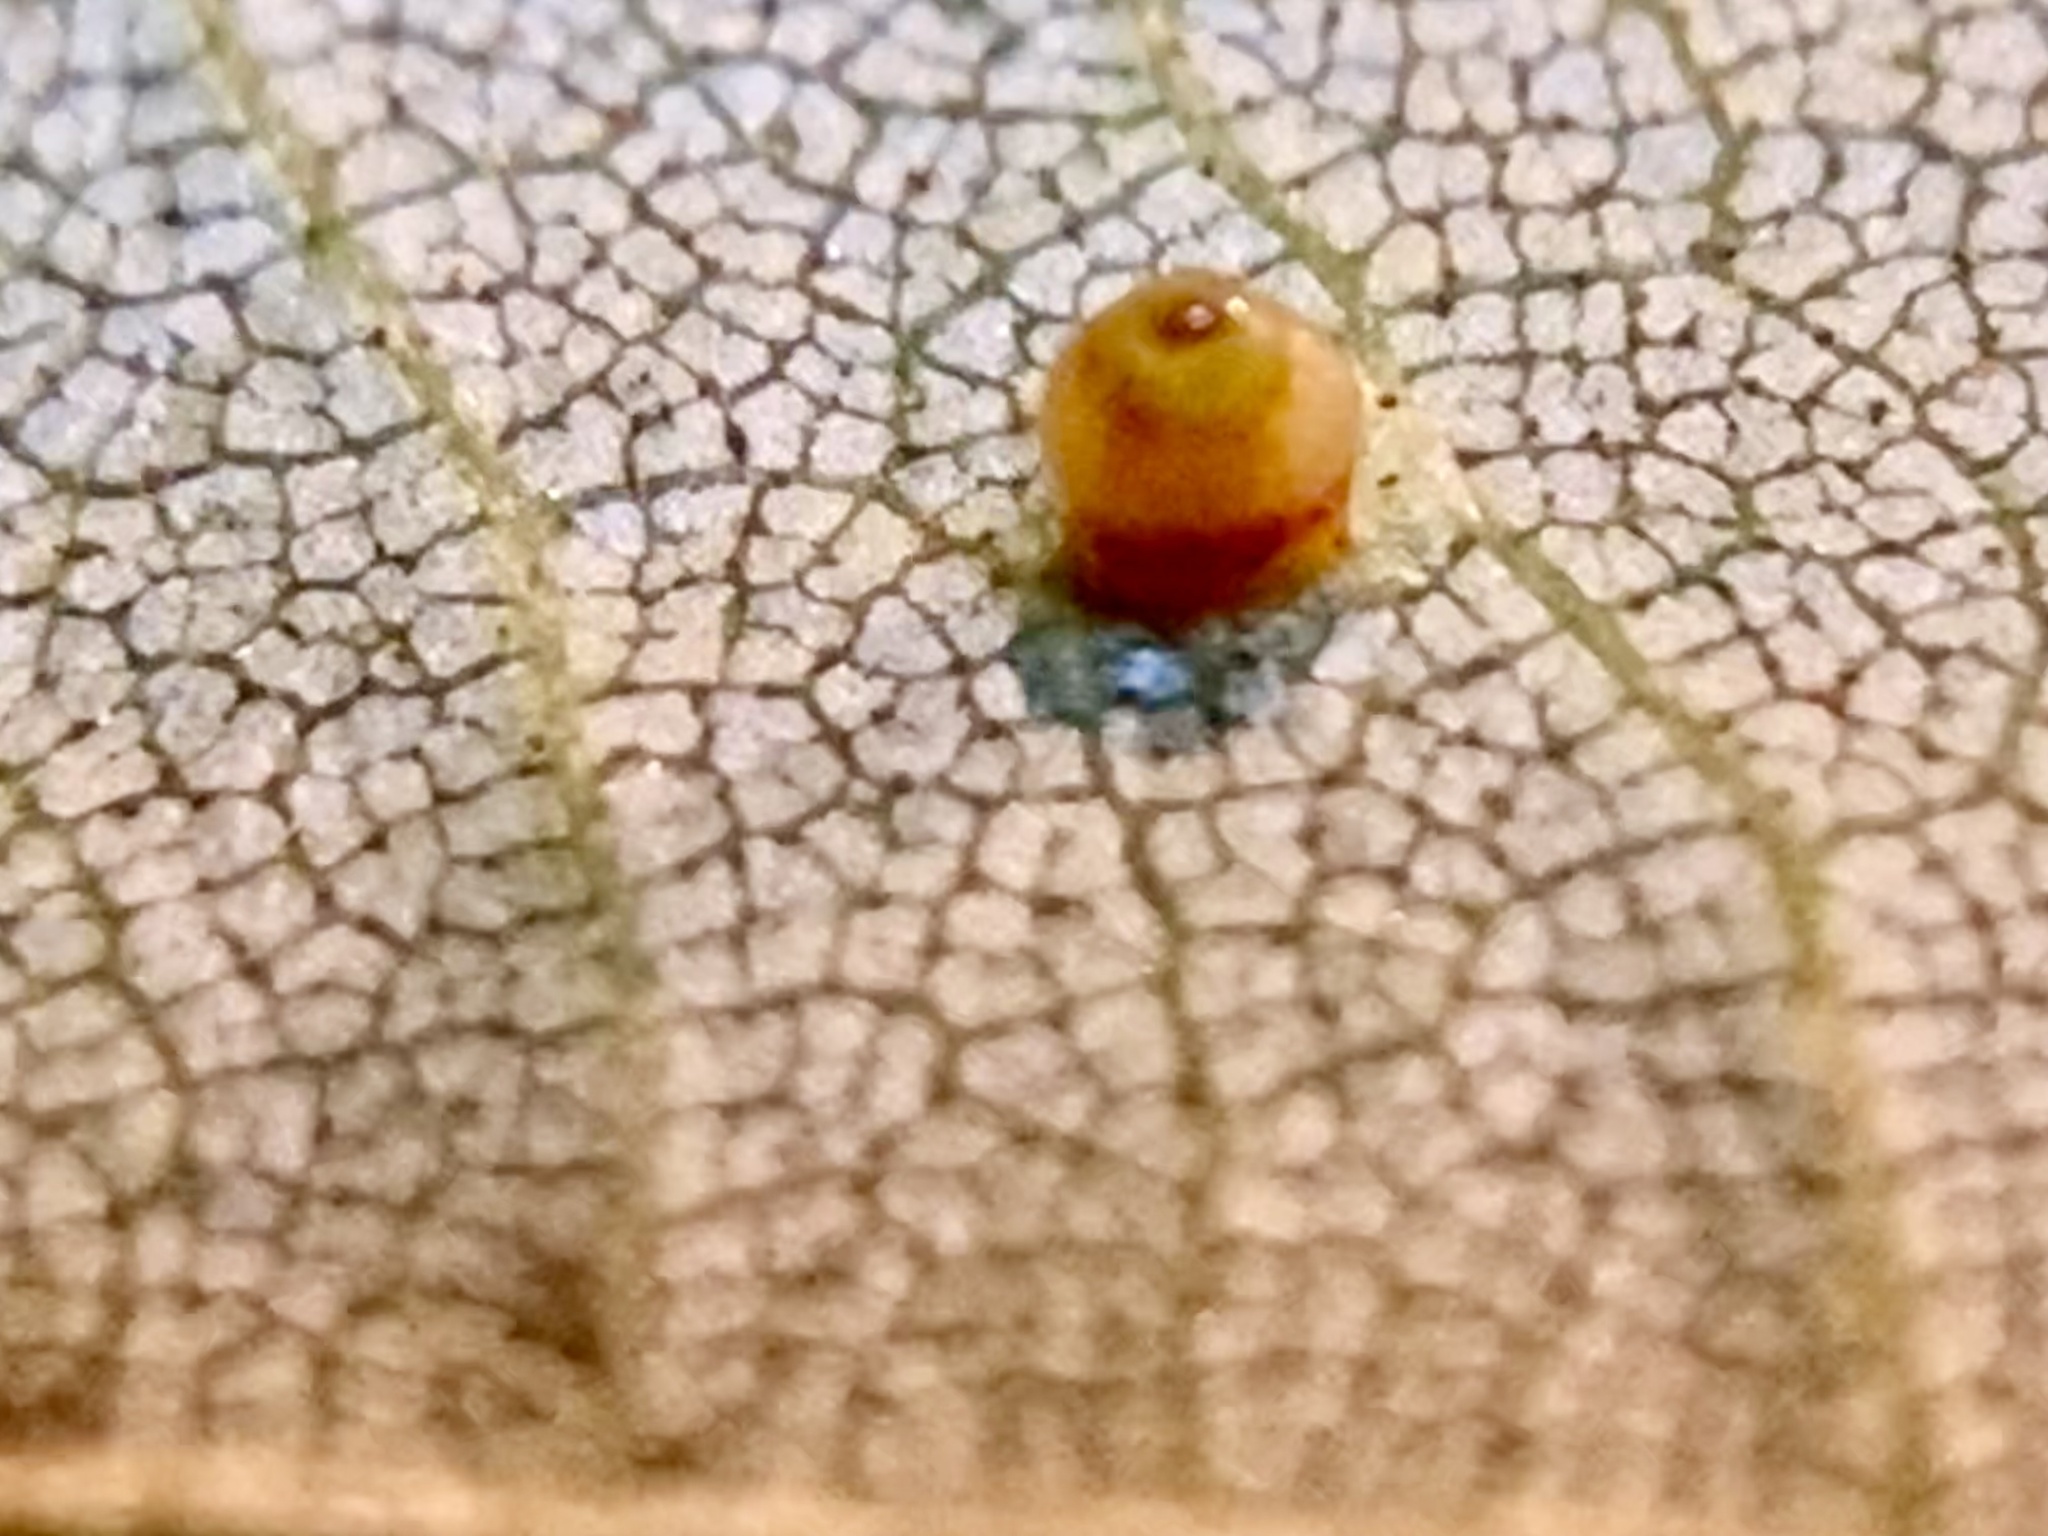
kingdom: Animalia
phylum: Arthropoda
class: Insecta
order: Diptera
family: Cecidomyiidae
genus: Caryomyia
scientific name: Caryomyia caryae
